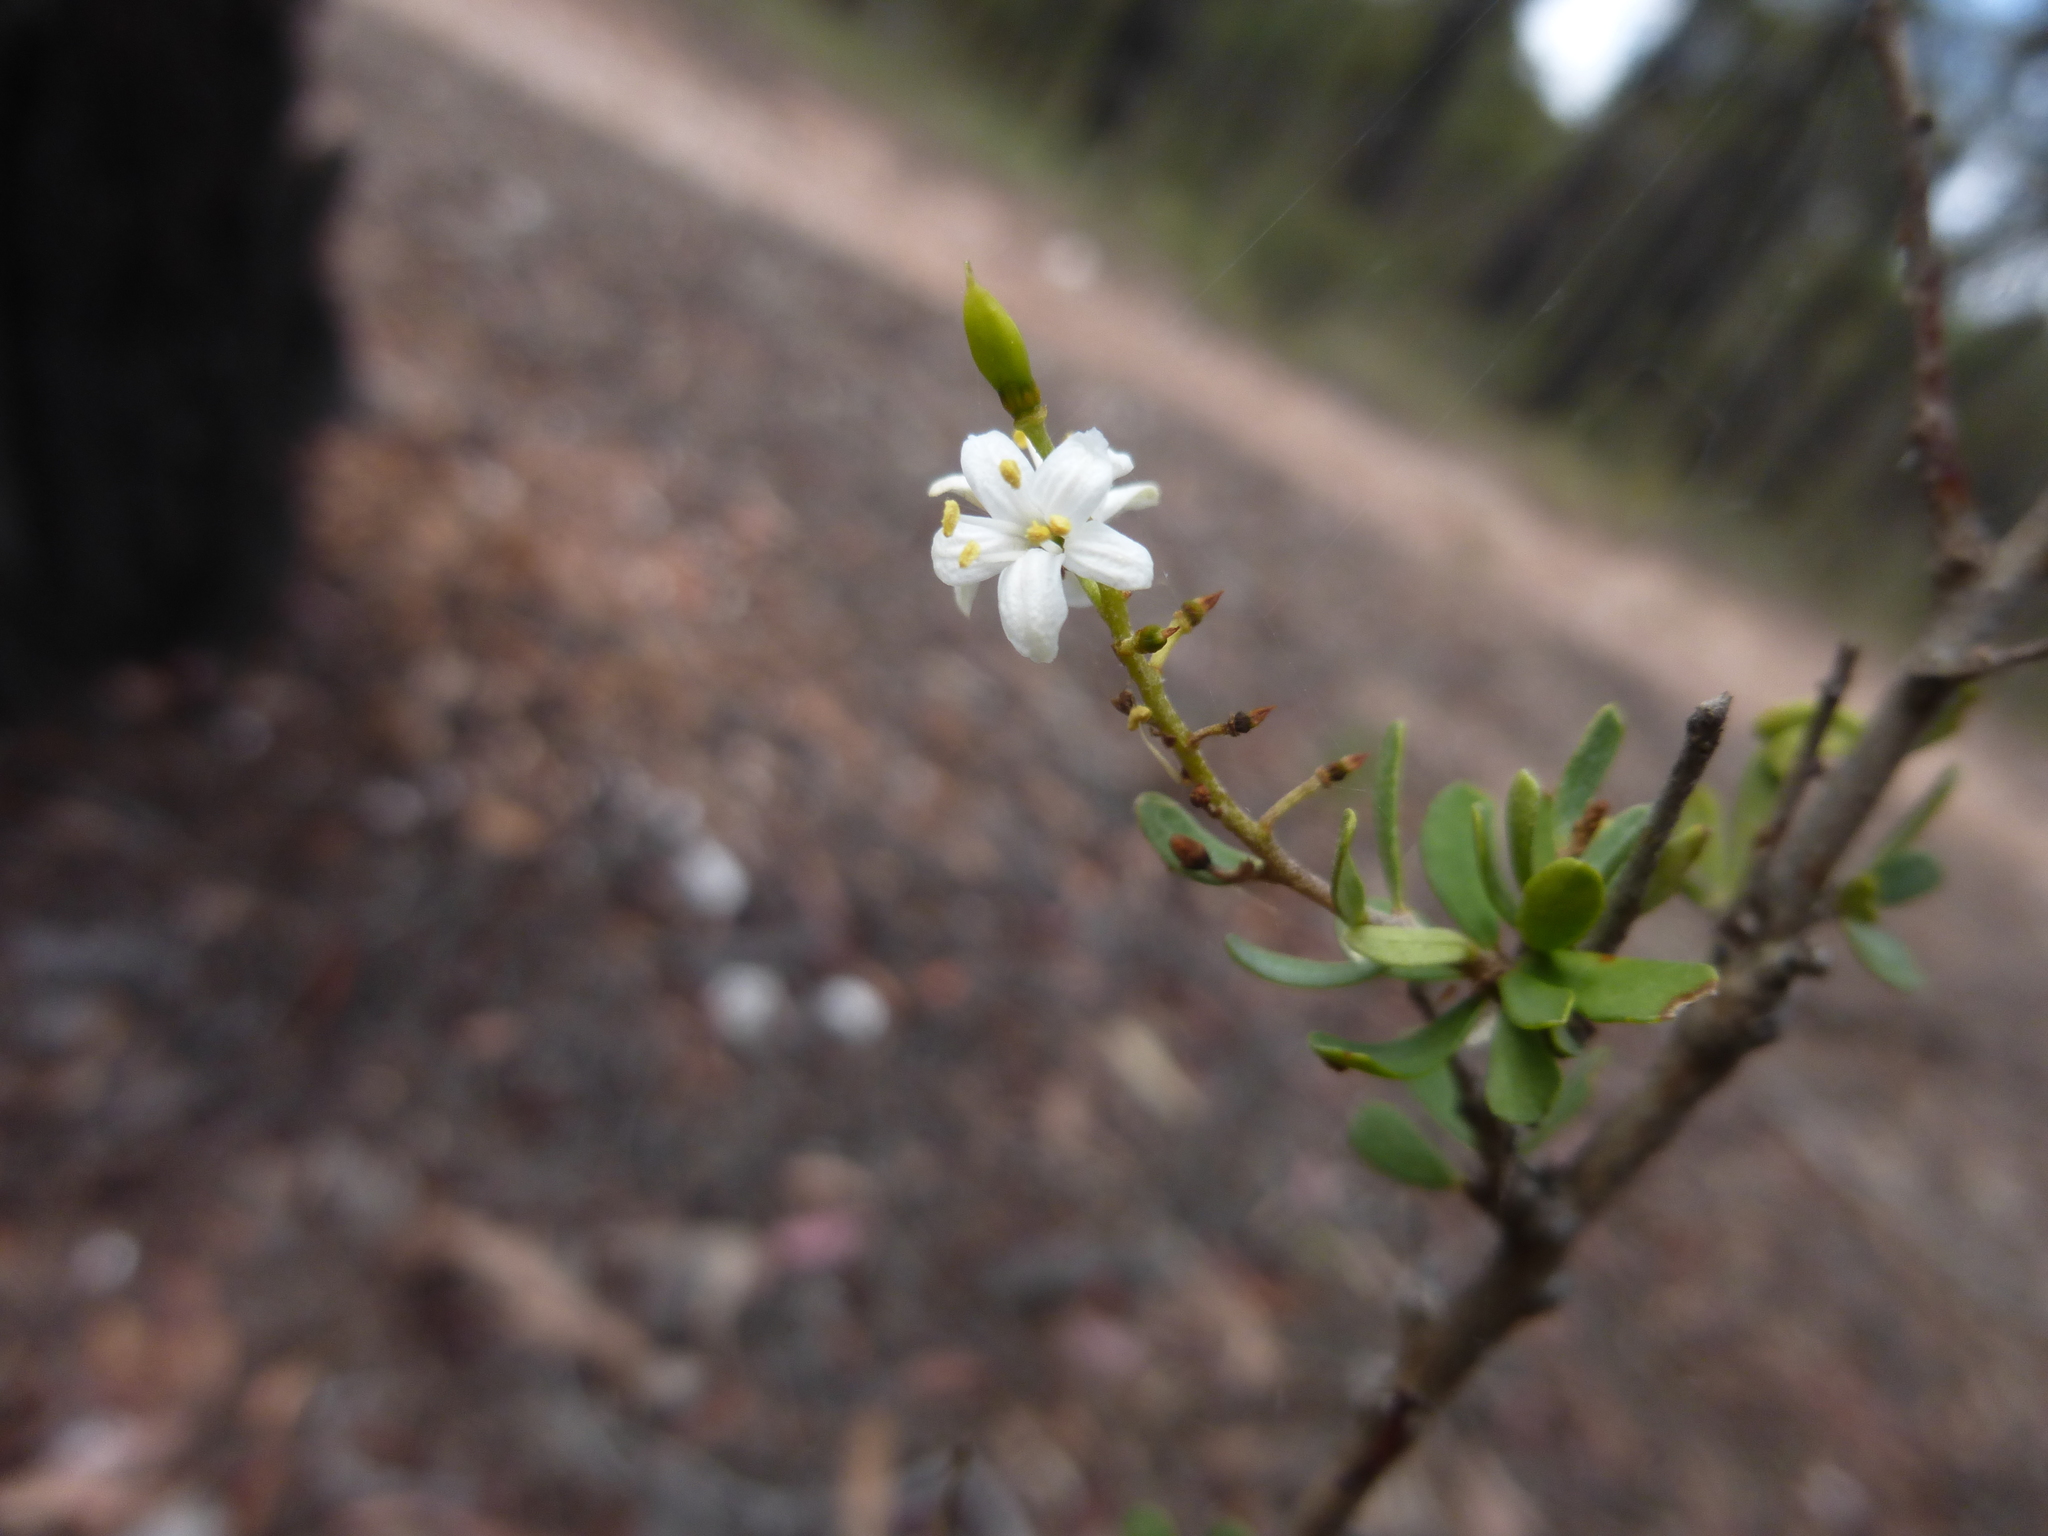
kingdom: Plantae
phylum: Tracheophyta
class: Magnoliopsida
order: Apiales
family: Pittosporaceae
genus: Bursaria
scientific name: Bursaria spinosa
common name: Australian blackthorn
